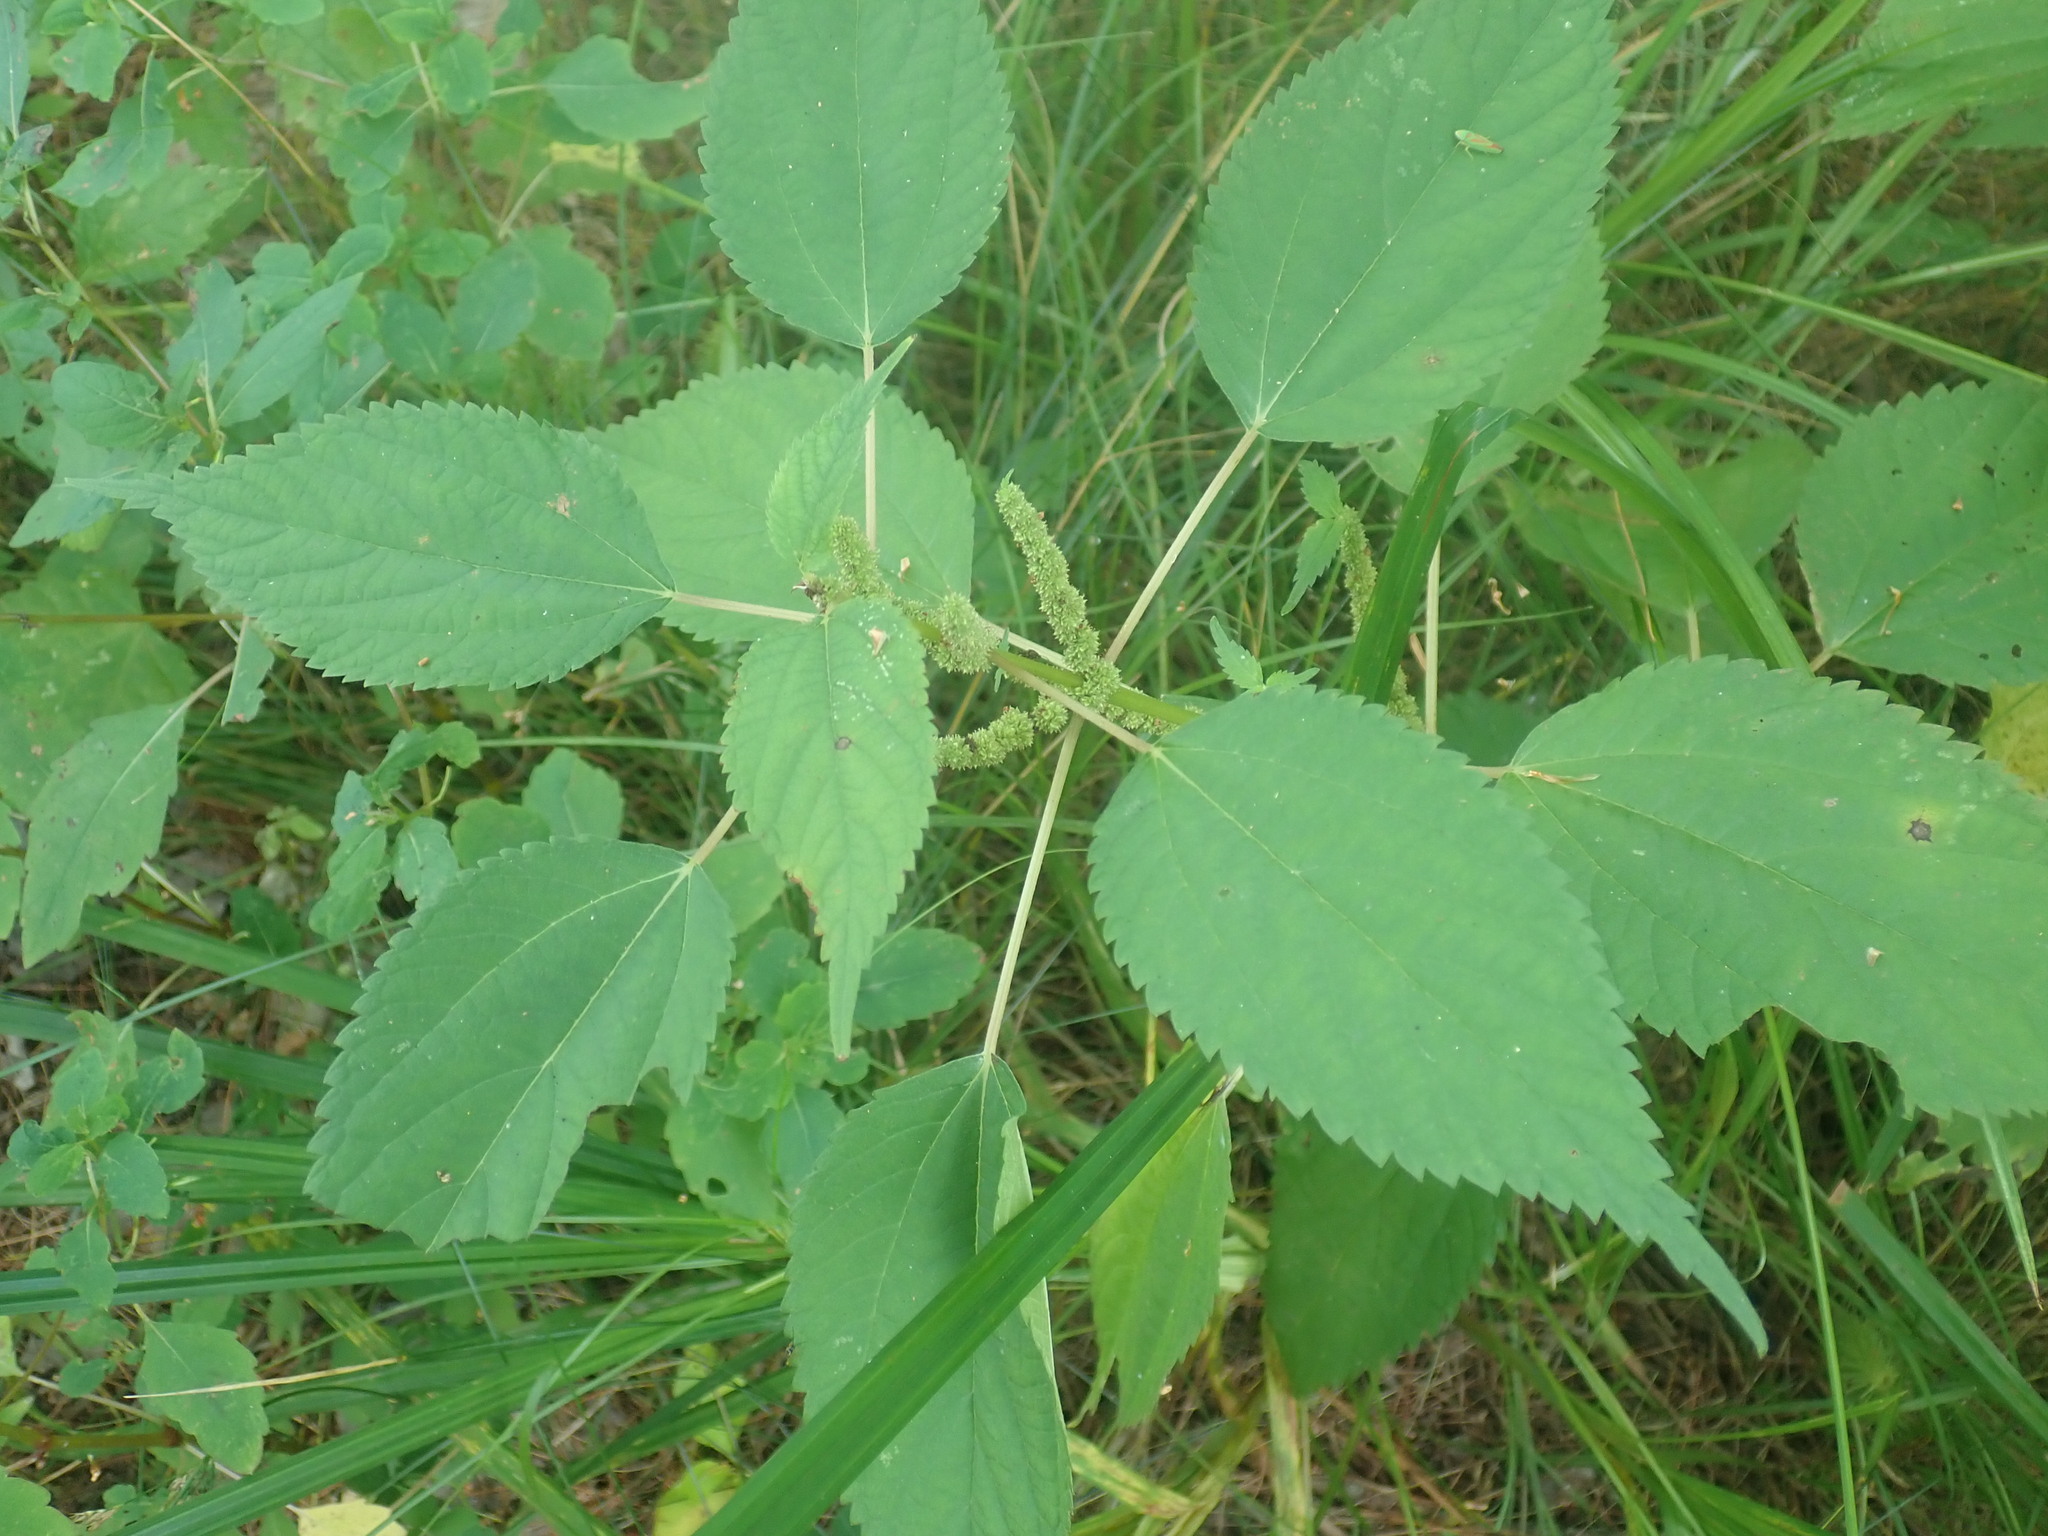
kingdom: Plantae
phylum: Tracheophyta
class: Magnoliopsida
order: Rosales
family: Urticaceae
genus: Boehmeria
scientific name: Boehmeria cylindrica
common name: Bog-hemp
